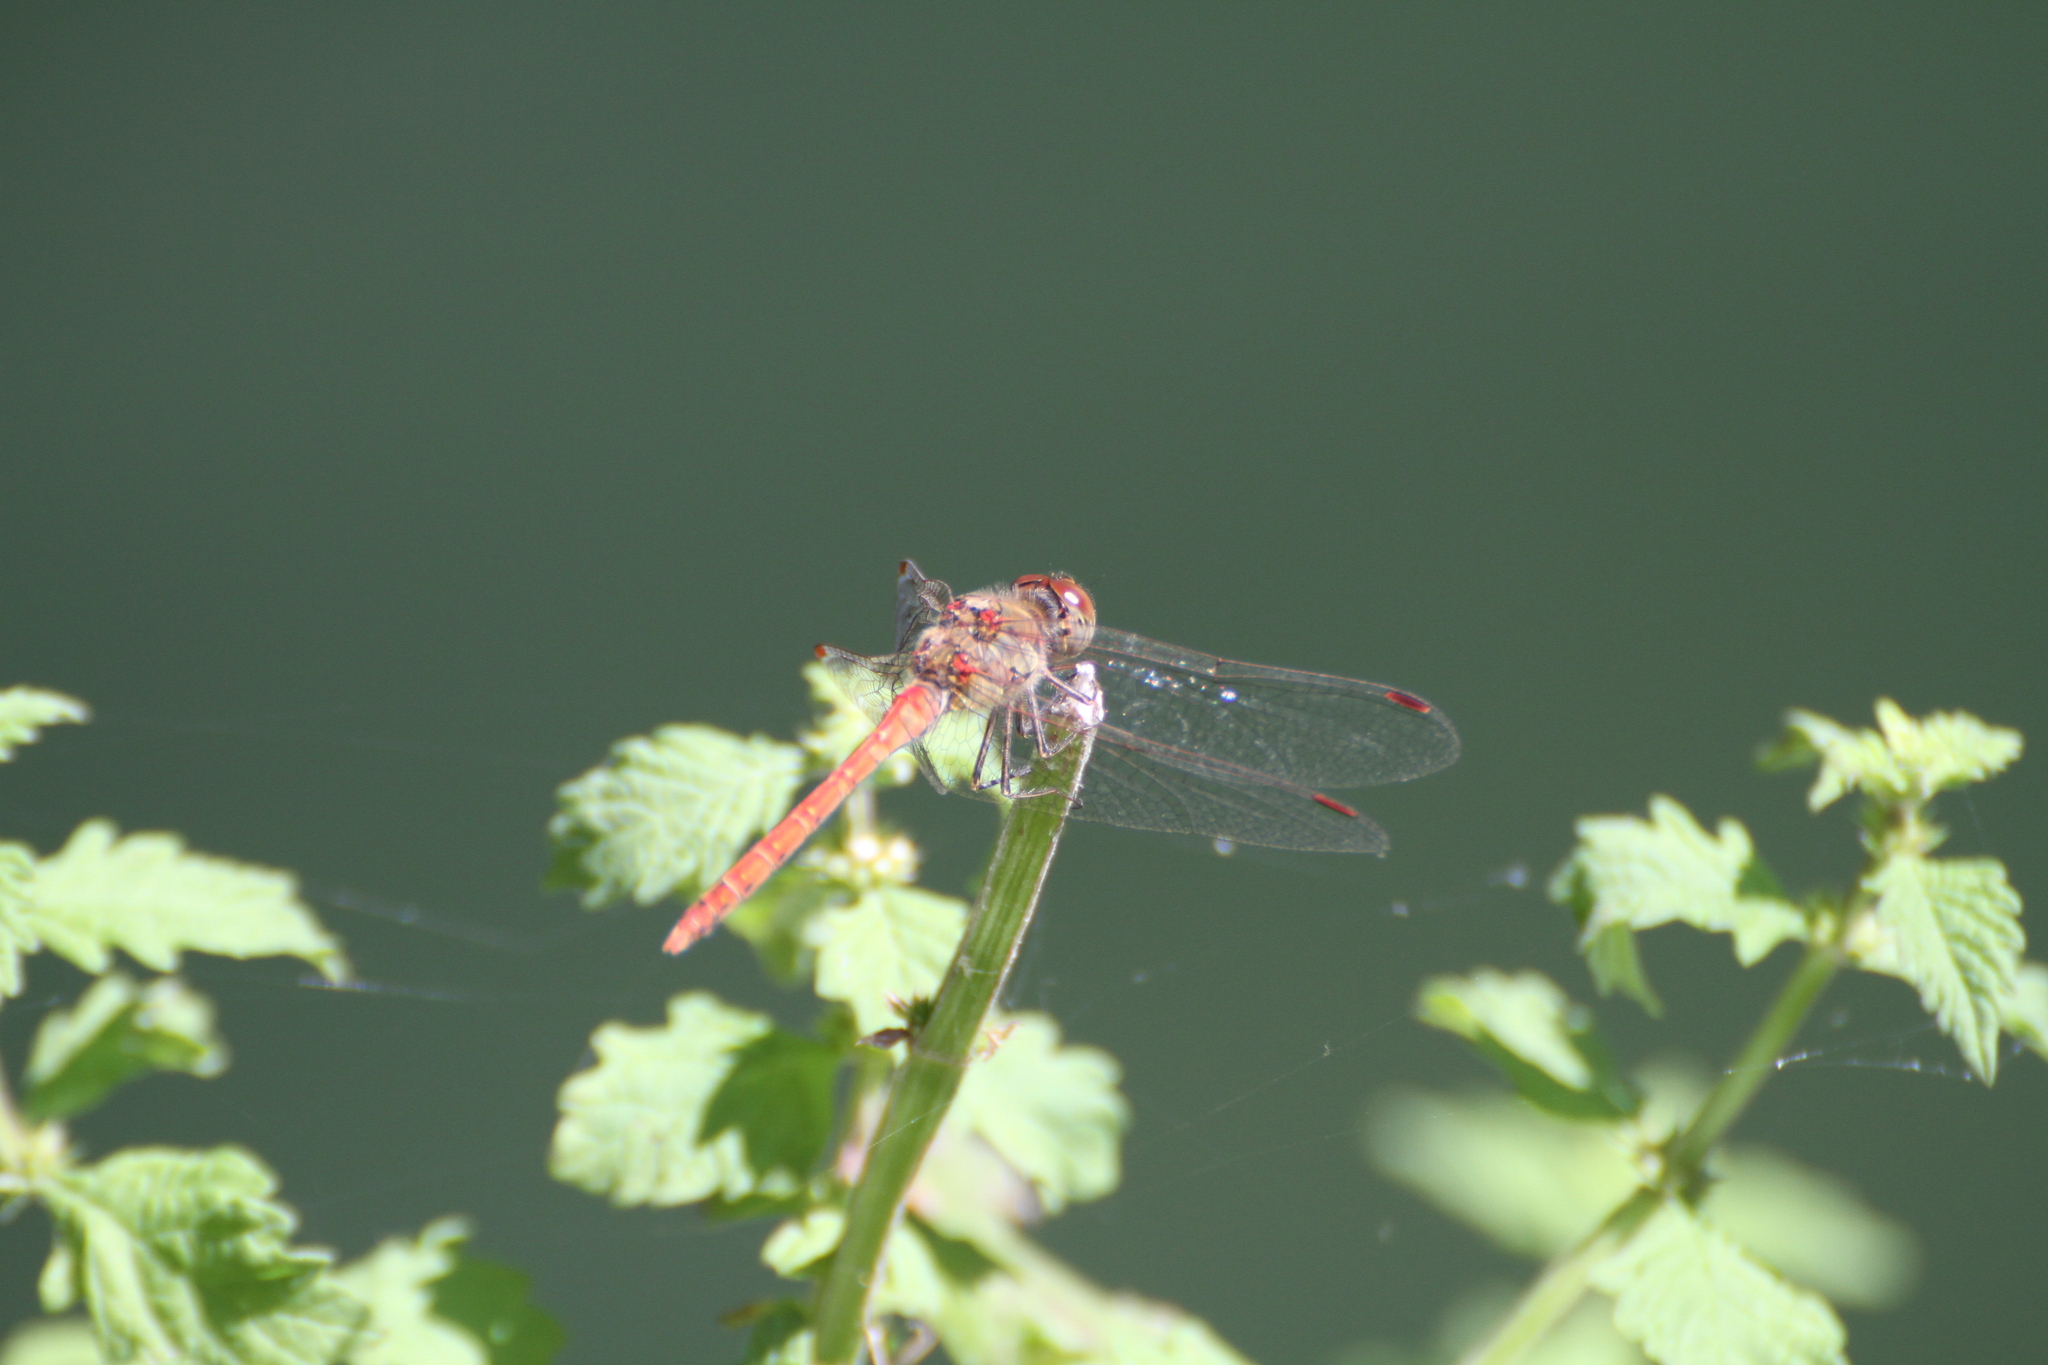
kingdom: Animalia
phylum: Arthropoda
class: Insecta
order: Odonata
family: Libellulidae
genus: Sympetrum
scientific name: Sympetrum striolatum
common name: Common darter
